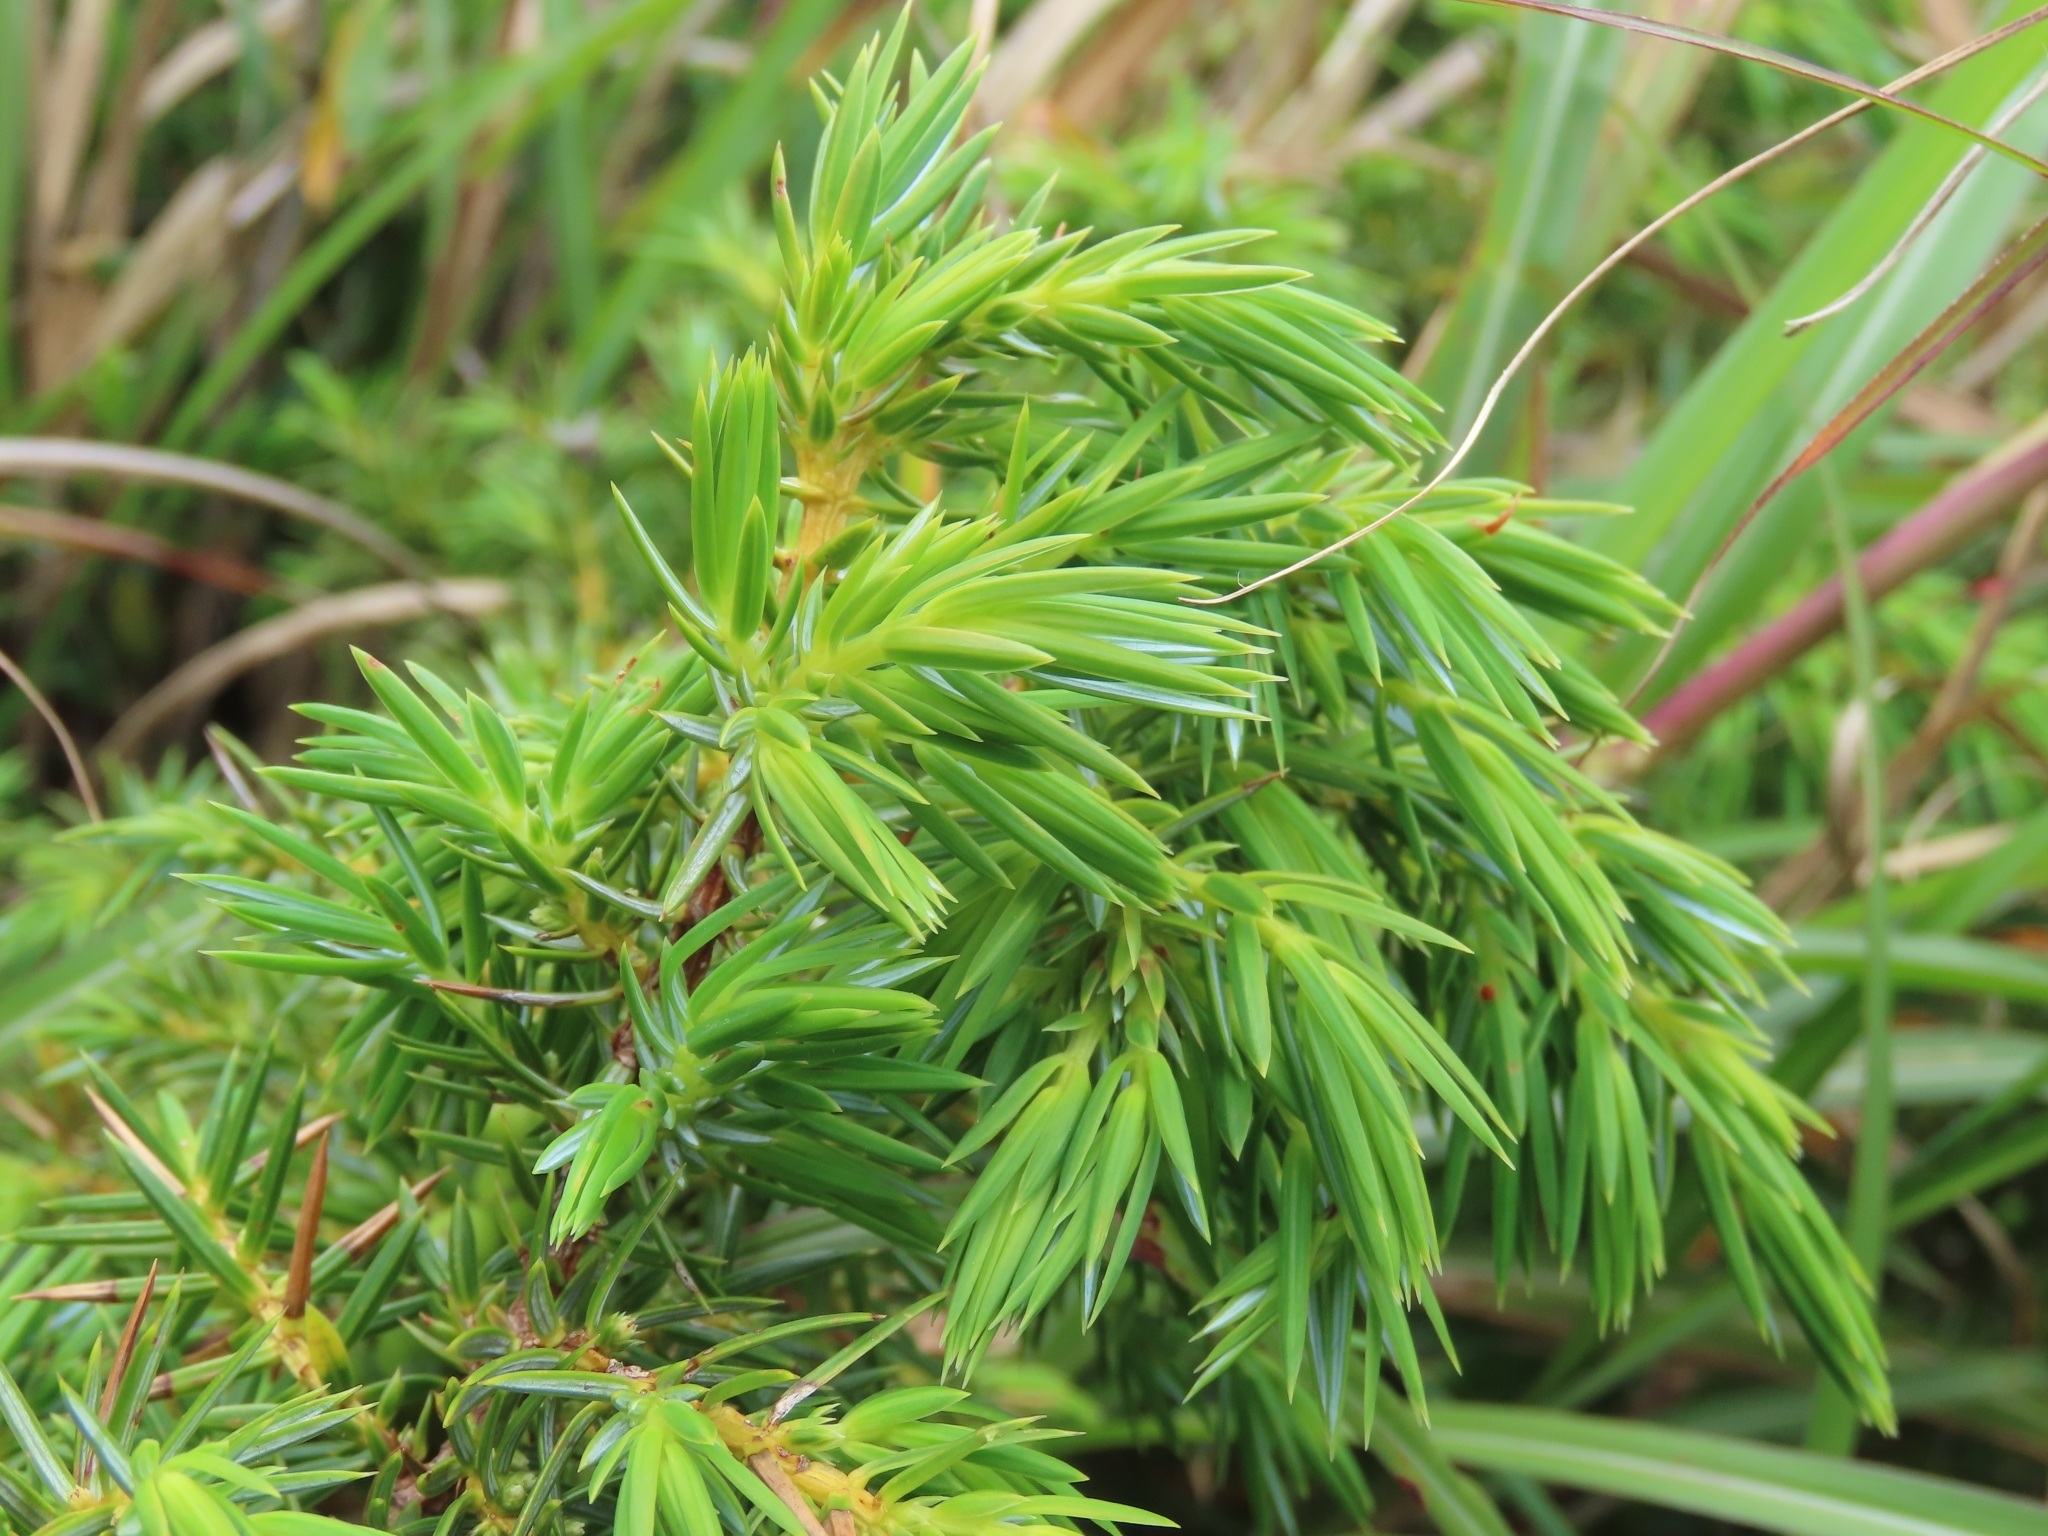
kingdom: Plantae
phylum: Tracheophyta
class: Pinopsida
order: Pinales
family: Cupressaceae
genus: Juniperus
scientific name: Juniperus formosana
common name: Formosan juniper
